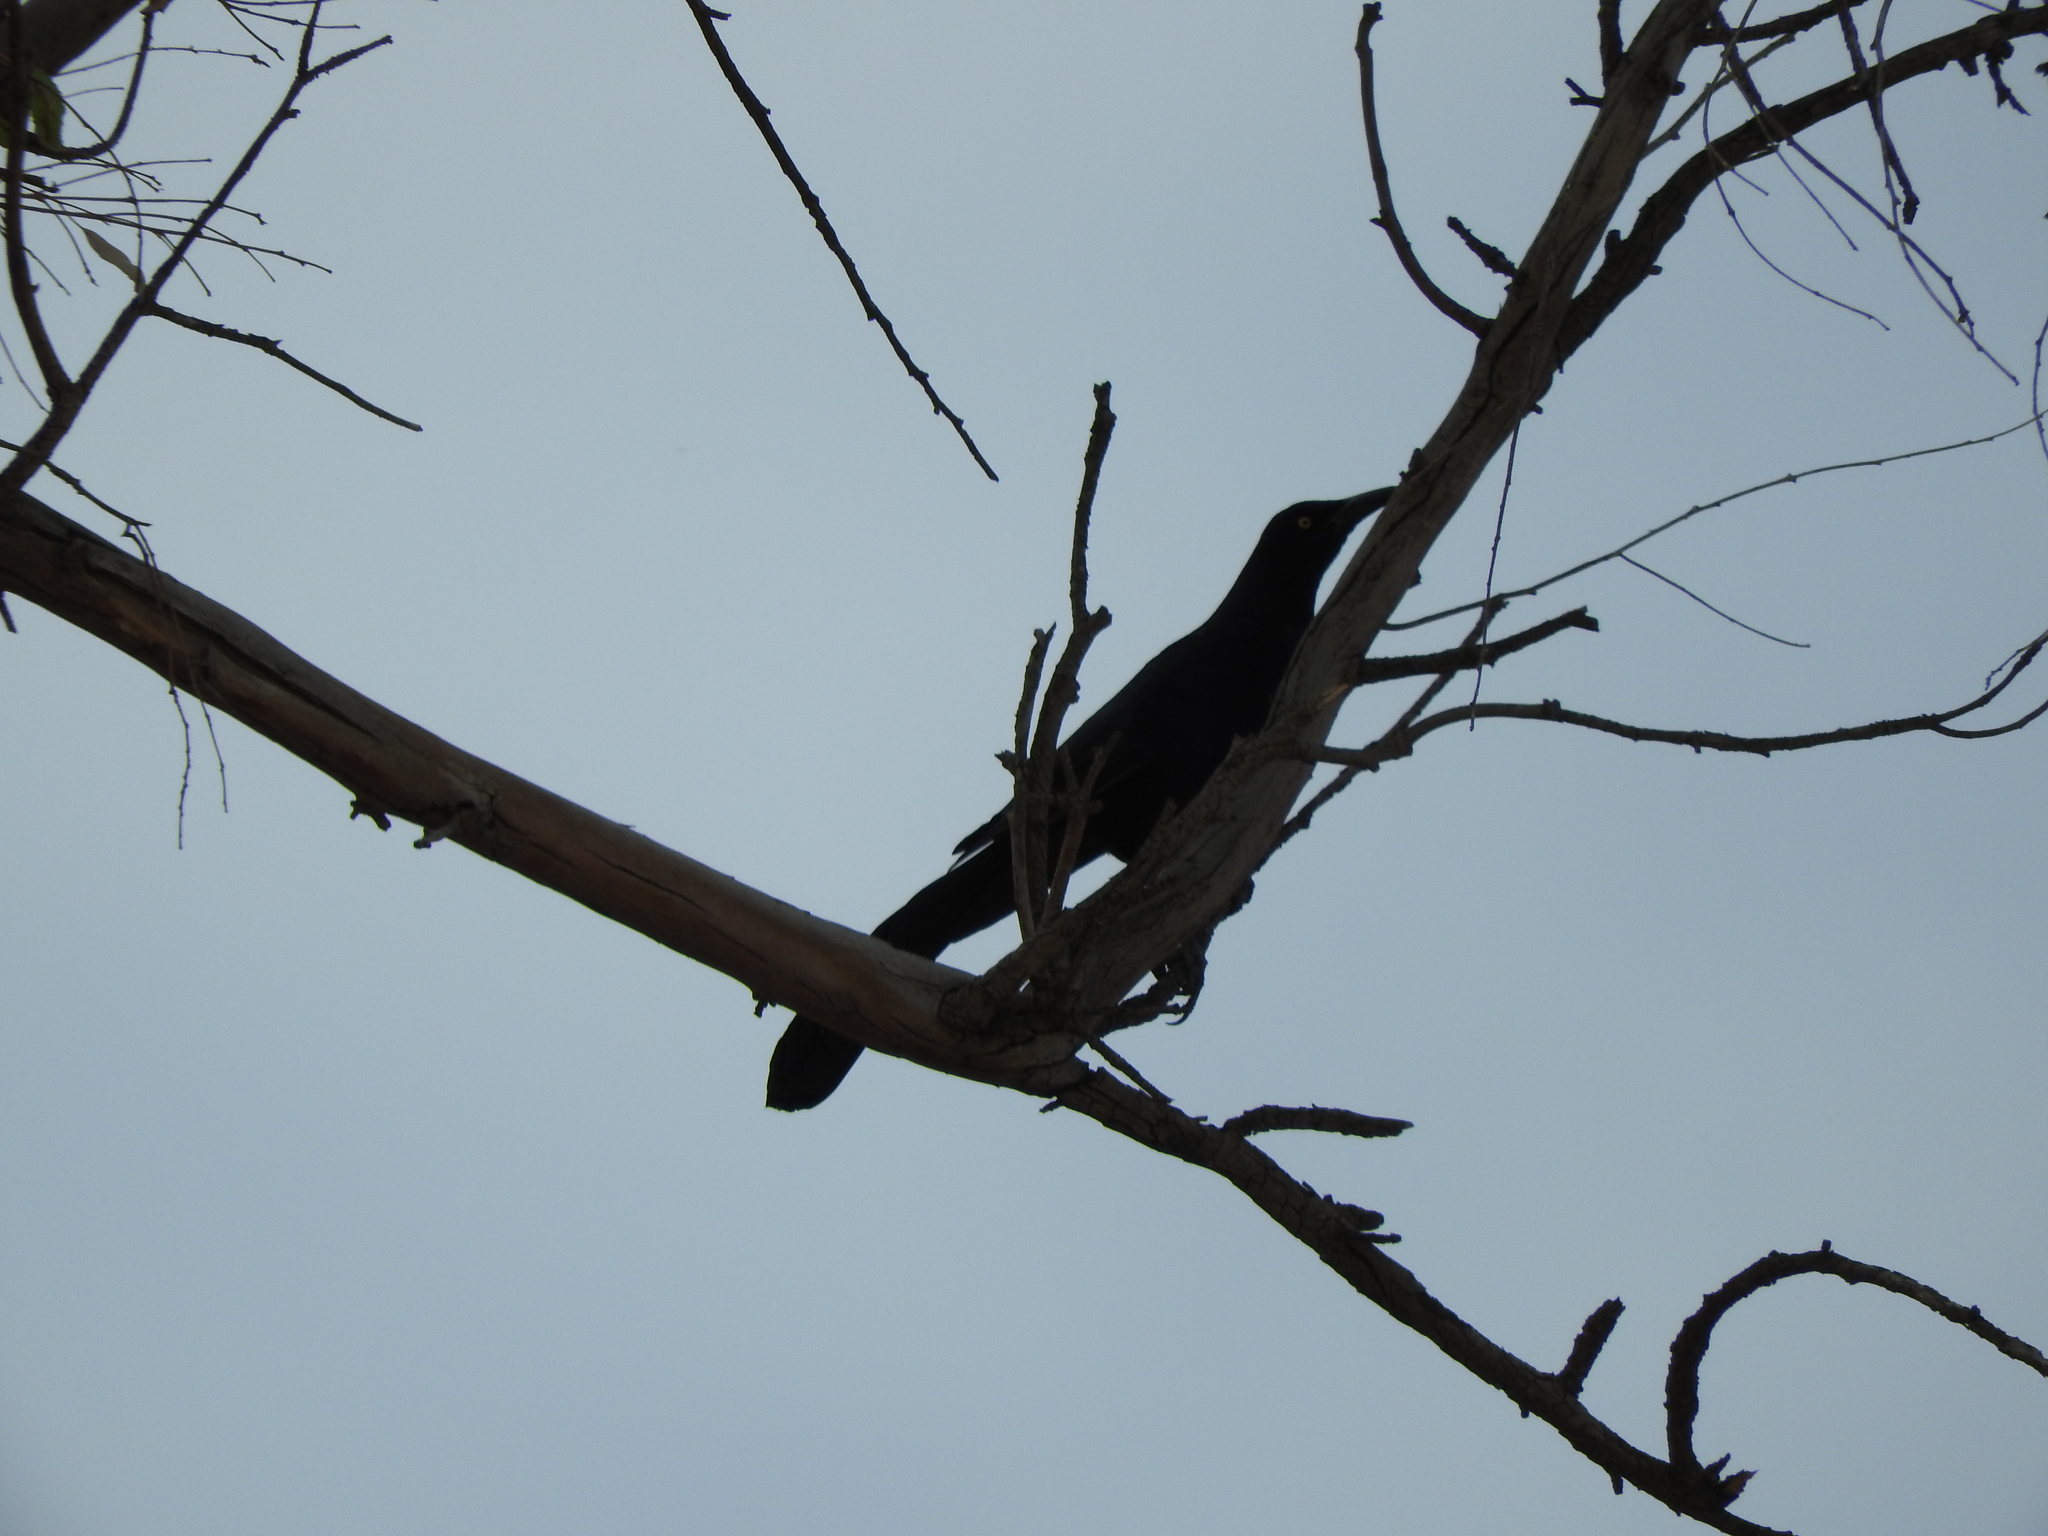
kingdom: Animalia
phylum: Chordata
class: Aves
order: Passeriformes
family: Icteridae
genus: Quiscalus
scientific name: Quiscalus mexicanus
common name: Great-tailed grackle
